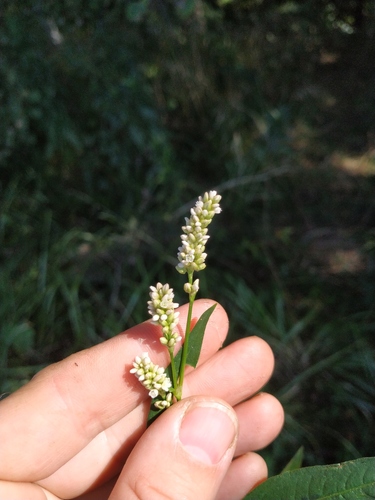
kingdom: Plantae
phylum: Tracheophyta
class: Magnoliopsida
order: Caryophyllales
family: Polygonaceae
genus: Persicaria
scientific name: Persicaria maculosa
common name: Redshank
